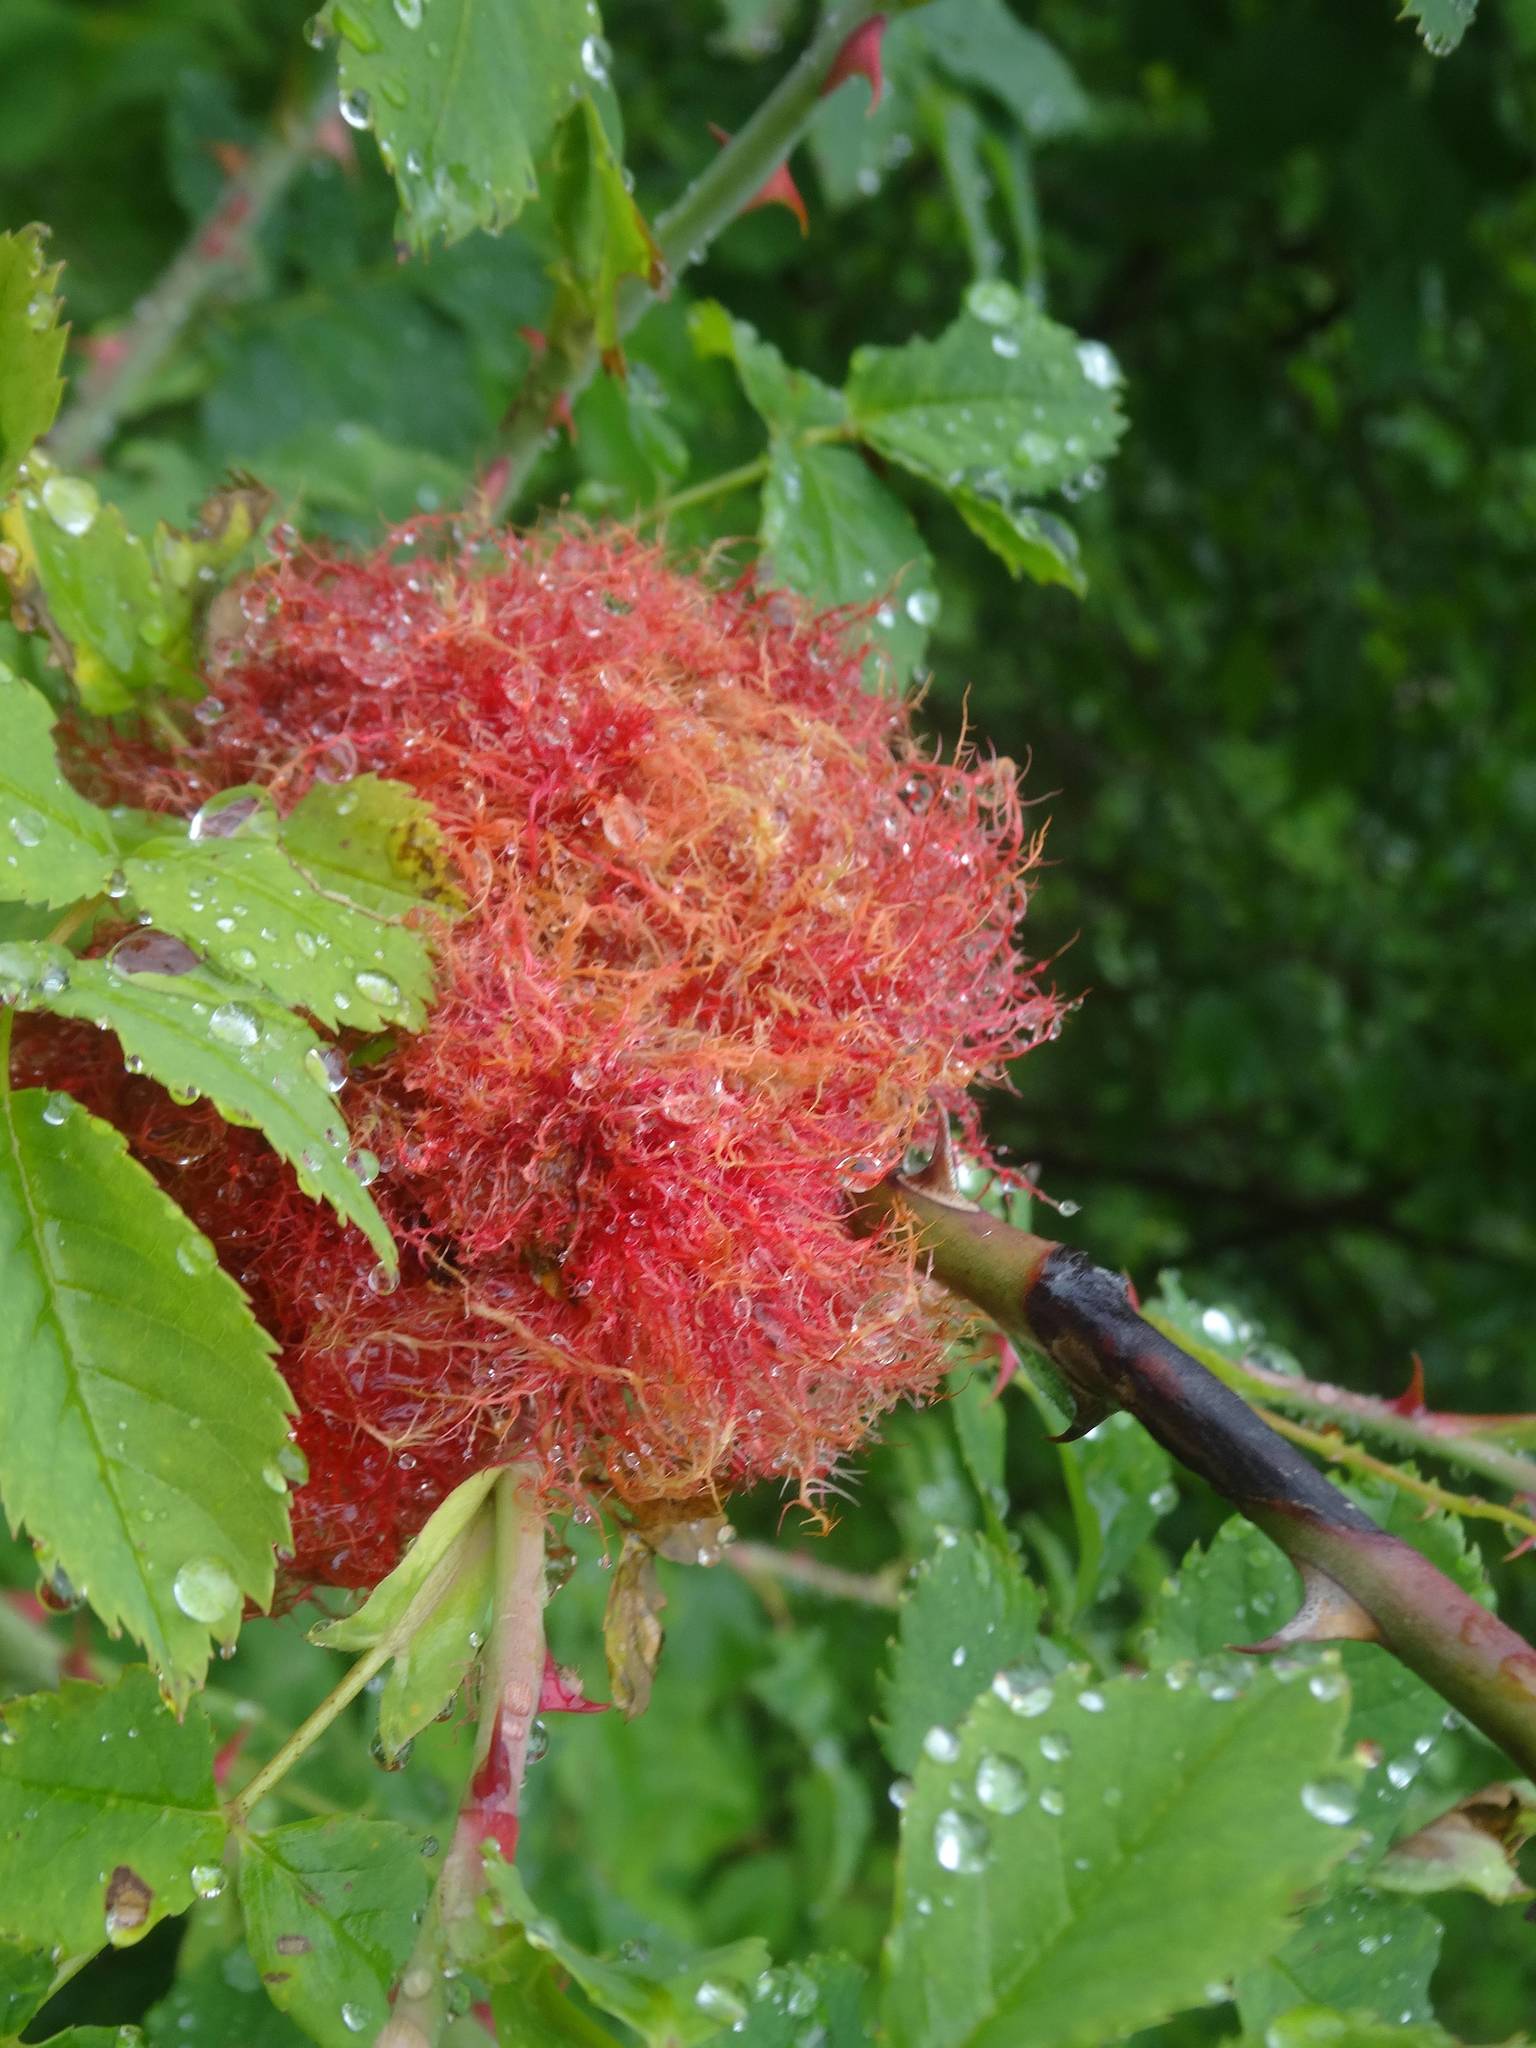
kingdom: Animalia
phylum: Arthropoda
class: Insecta
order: Hymenoptera
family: Cynipidae
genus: Diplolepis
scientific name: Diplolepis rosae
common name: Bedeguar gall
